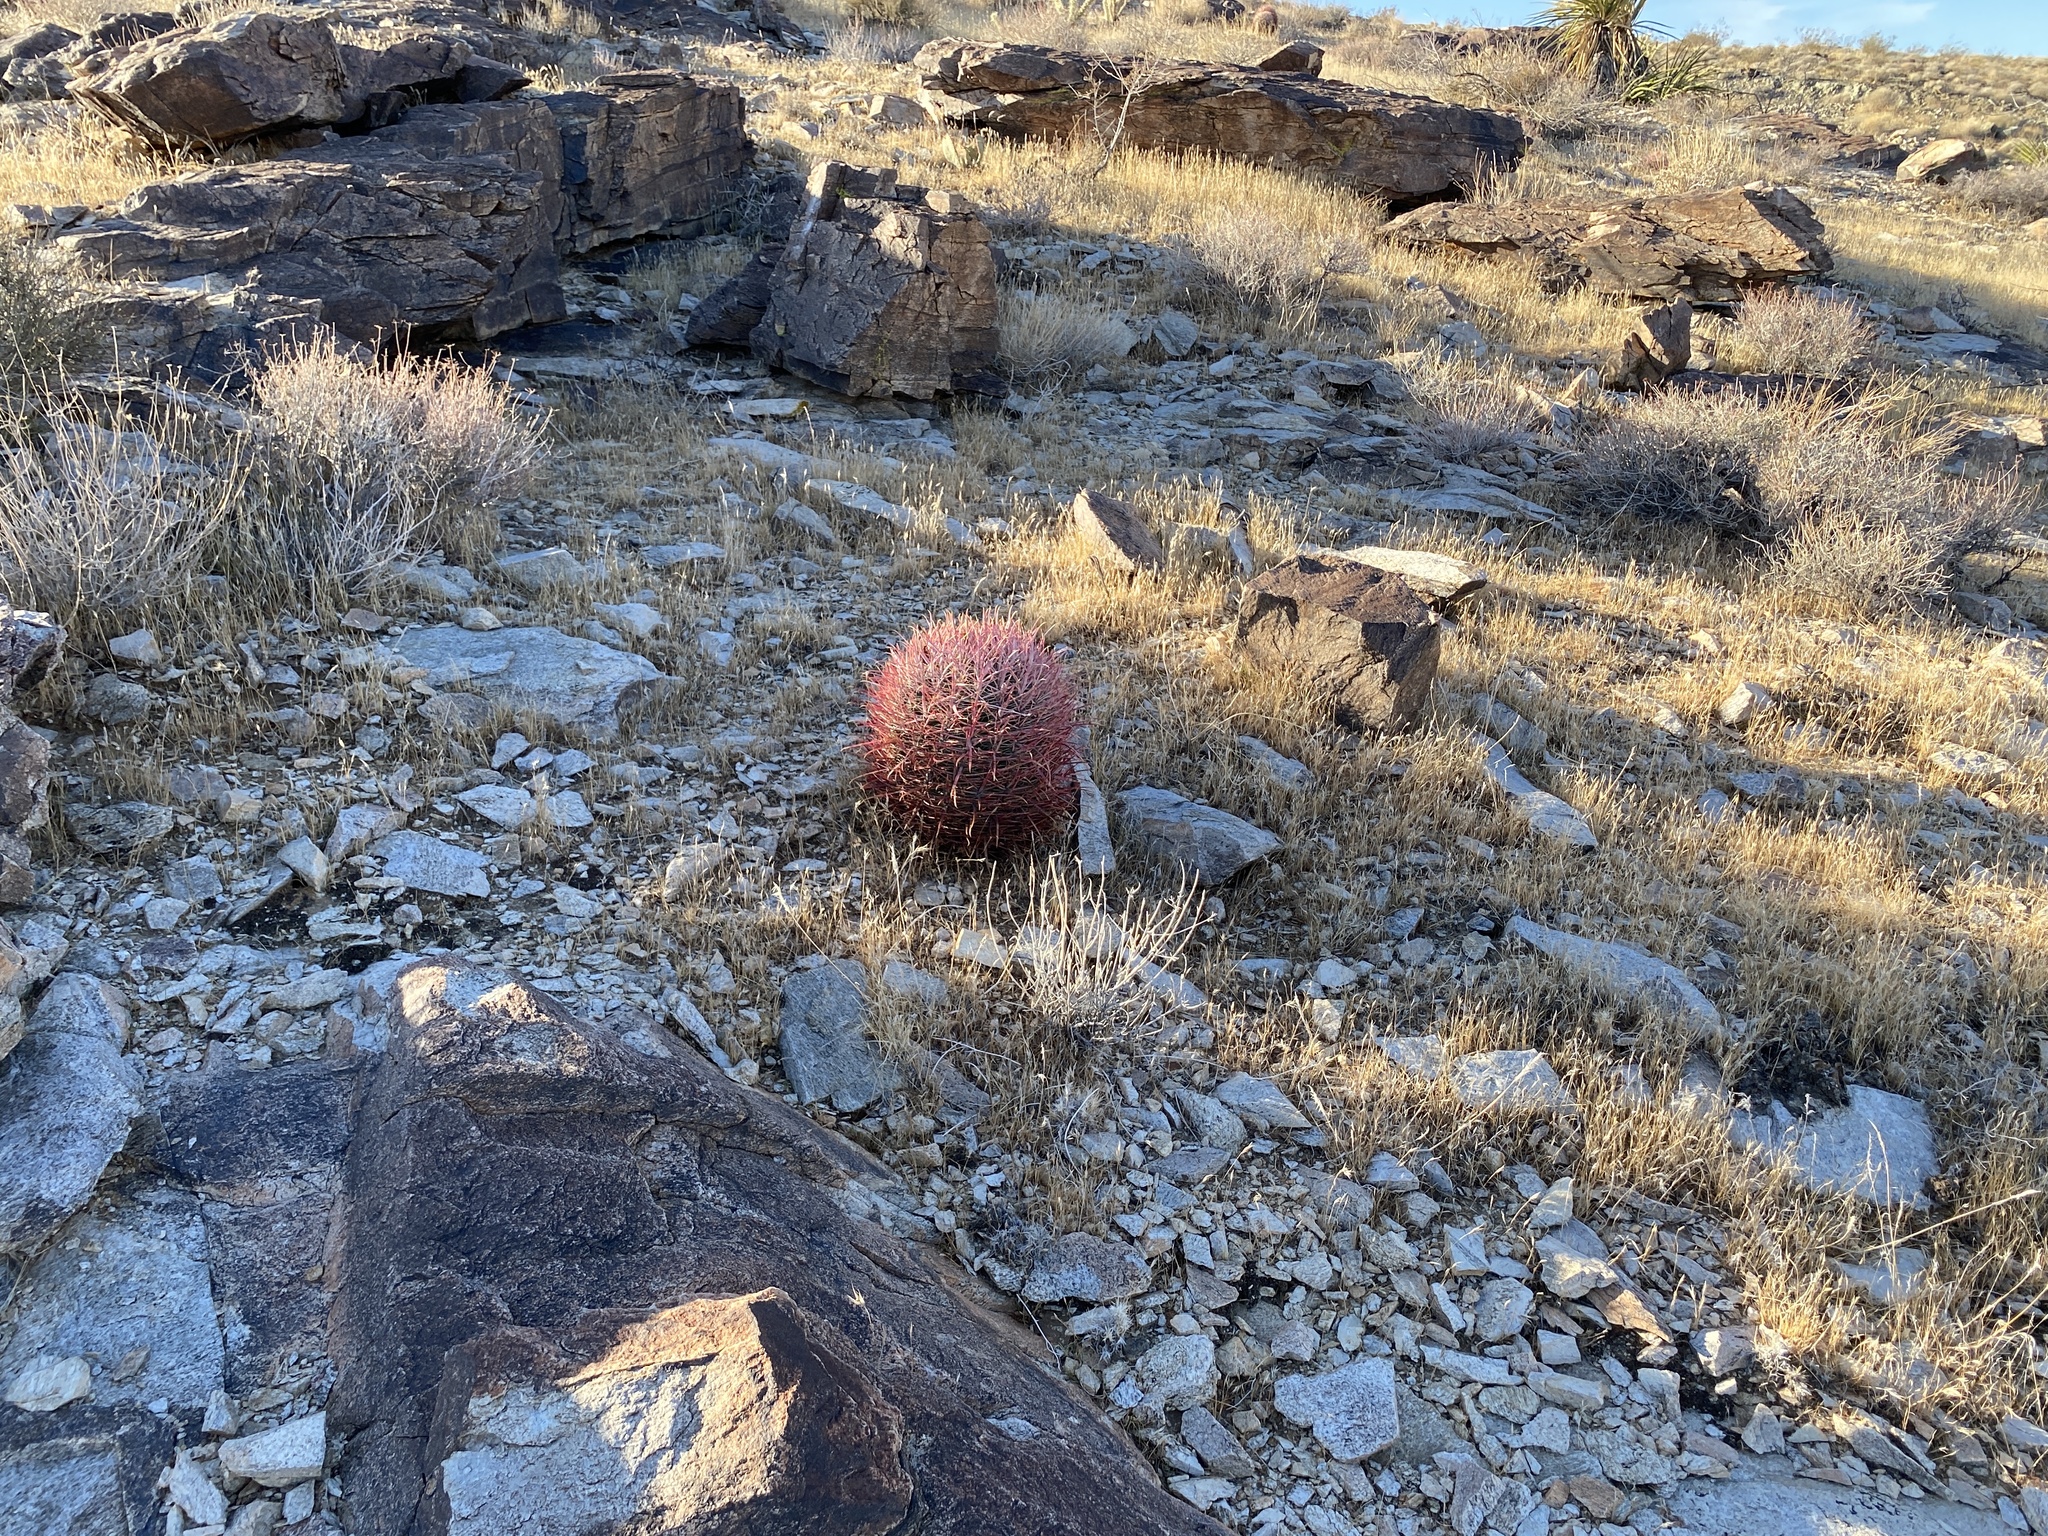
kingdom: Plantae
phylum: Tracheophyta
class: Magnoliopsida
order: Caryophyllales
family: Cactaceae
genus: Ferocactus
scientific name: Ferocactus cylindraceus
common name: California barrel cactus
